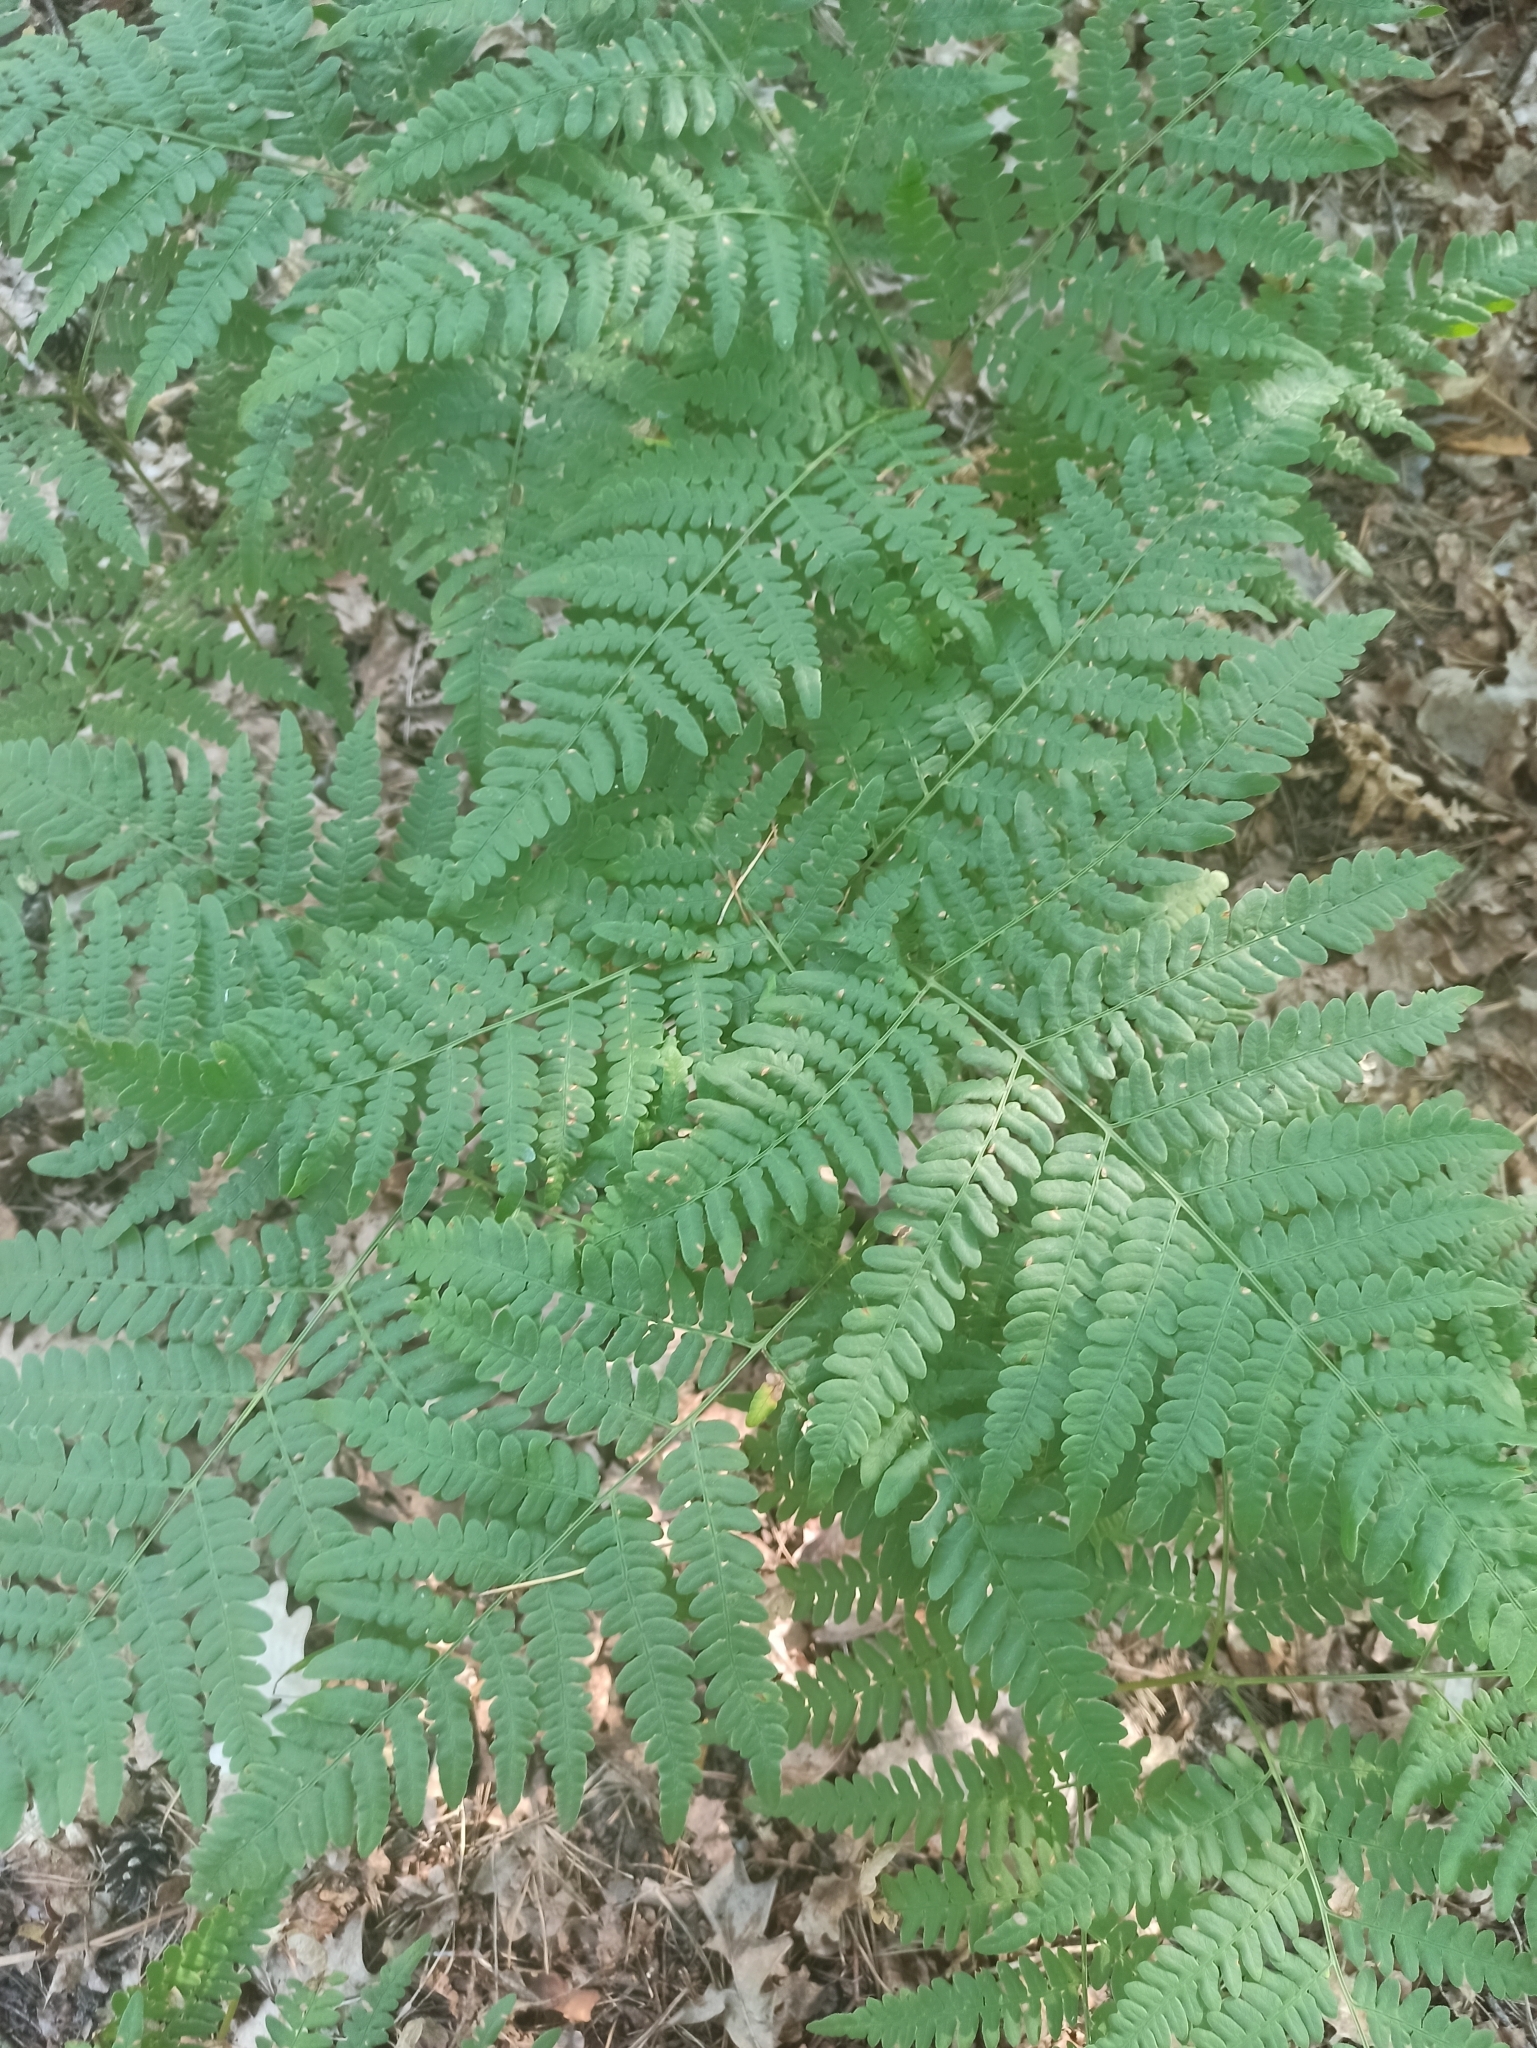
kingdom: Plantae
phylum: Tracheophyta
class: Polypodiopsida
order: Polypodiales
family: Dennstaedtiaceae
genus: Pteridium
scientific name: Pteridium aquilinum
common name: Bracken
